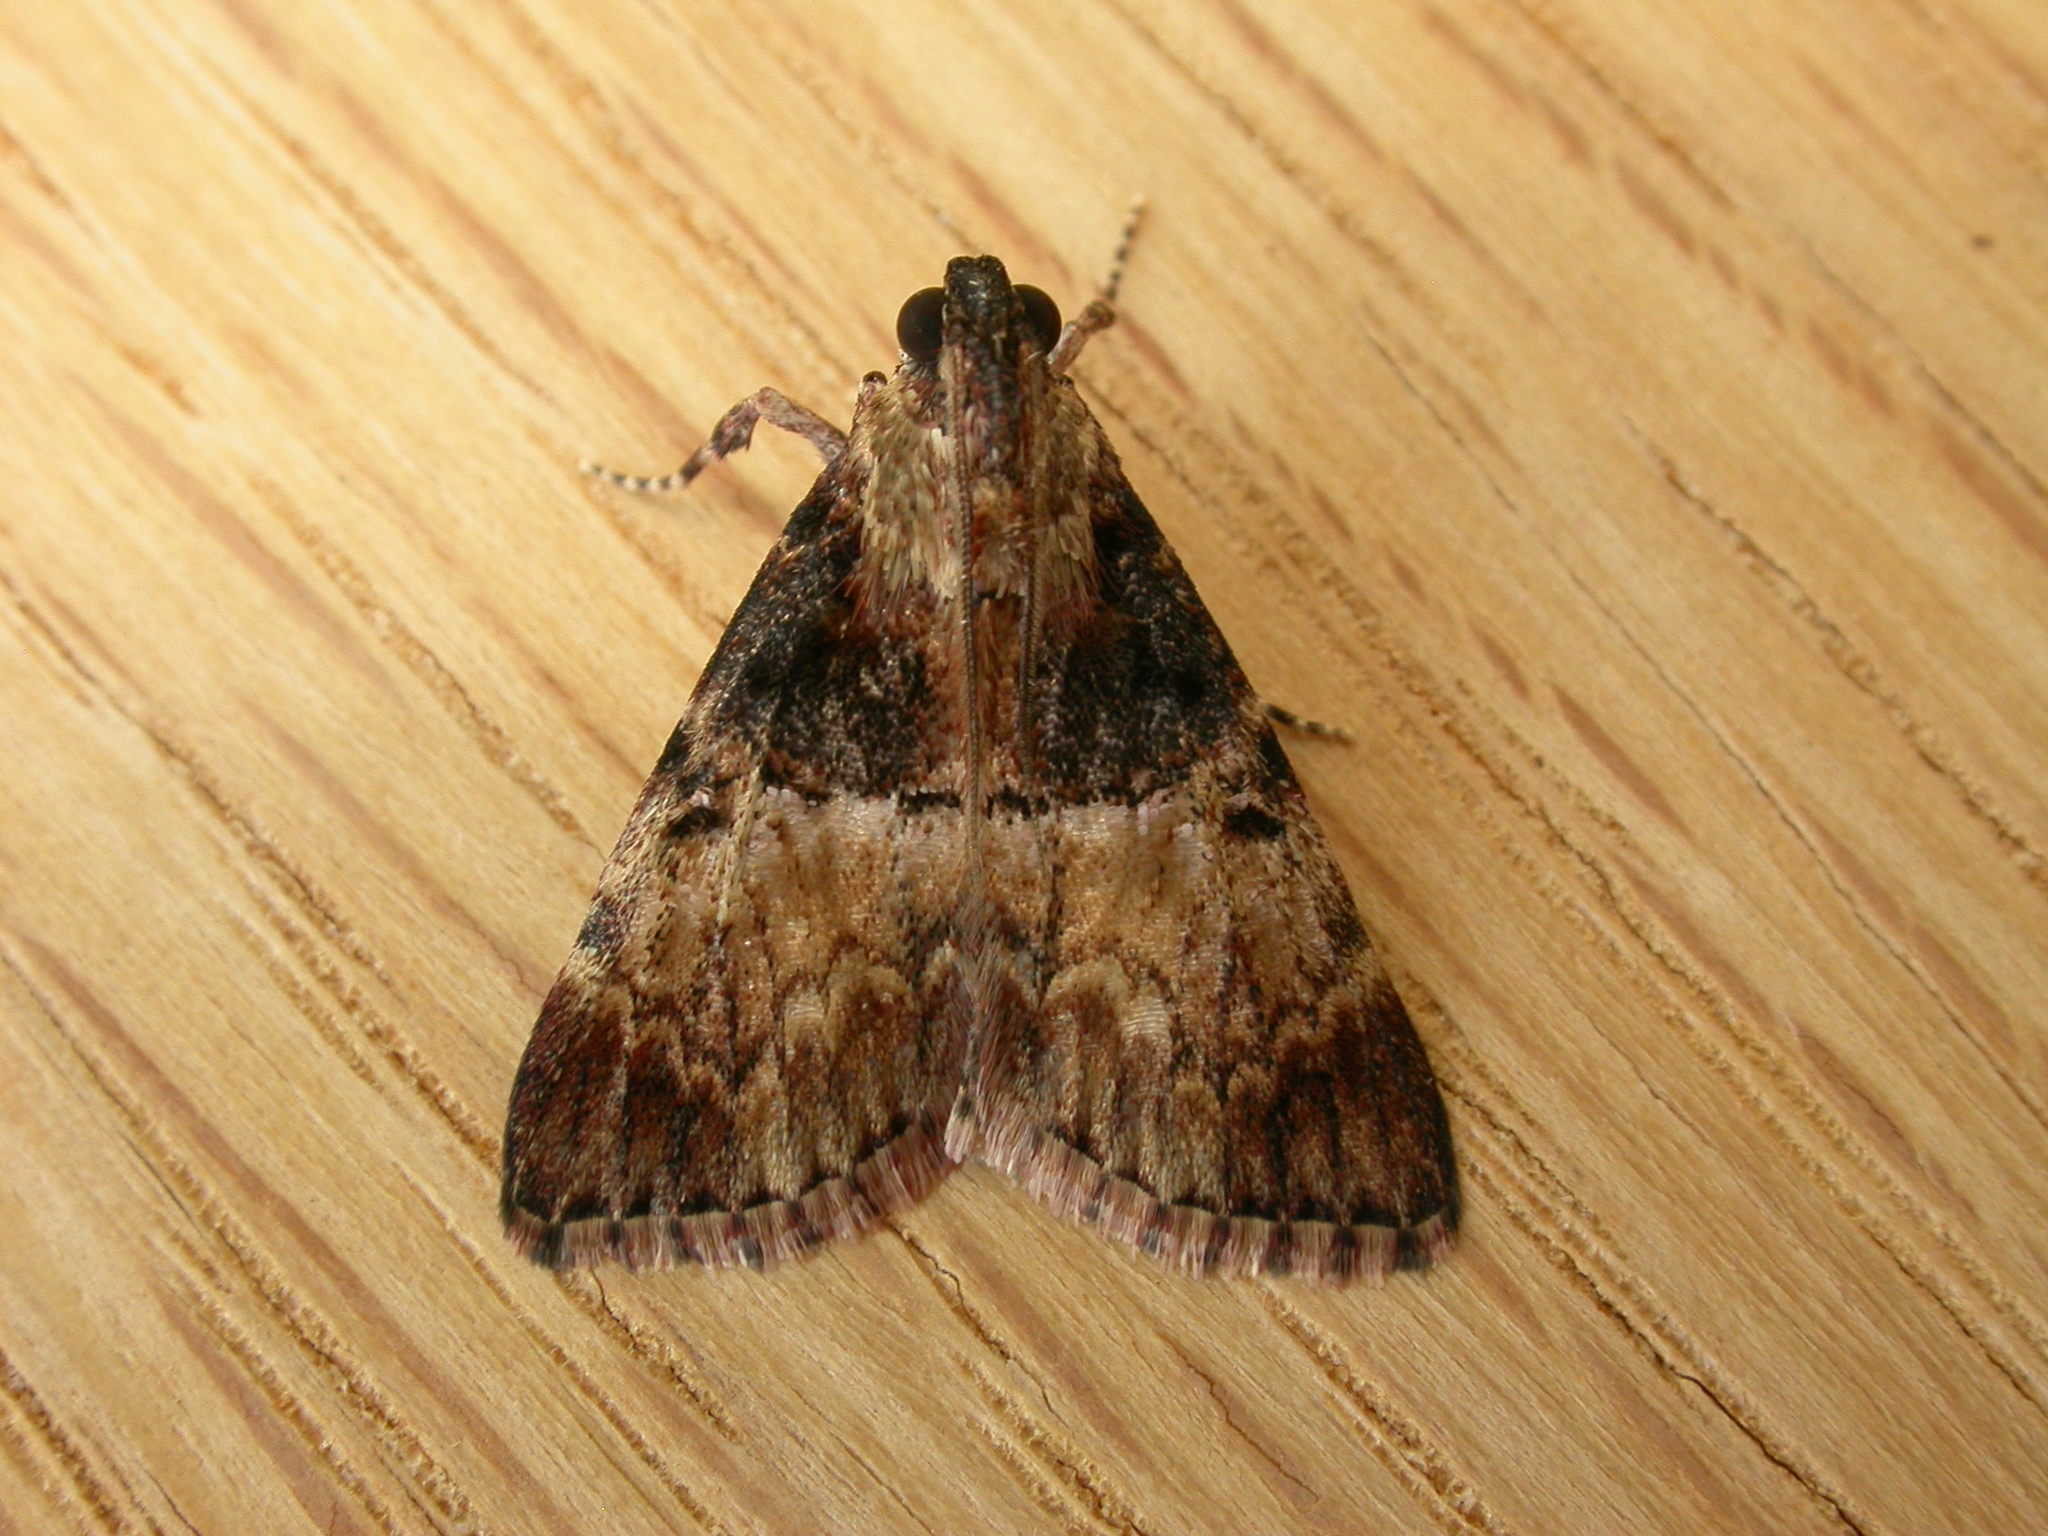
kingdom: Animalia
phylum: Arthropoda
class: Insecta
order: Lepidoptera
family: Pyralidae
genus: Orthaga
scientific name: Orthaga thyrisalis
